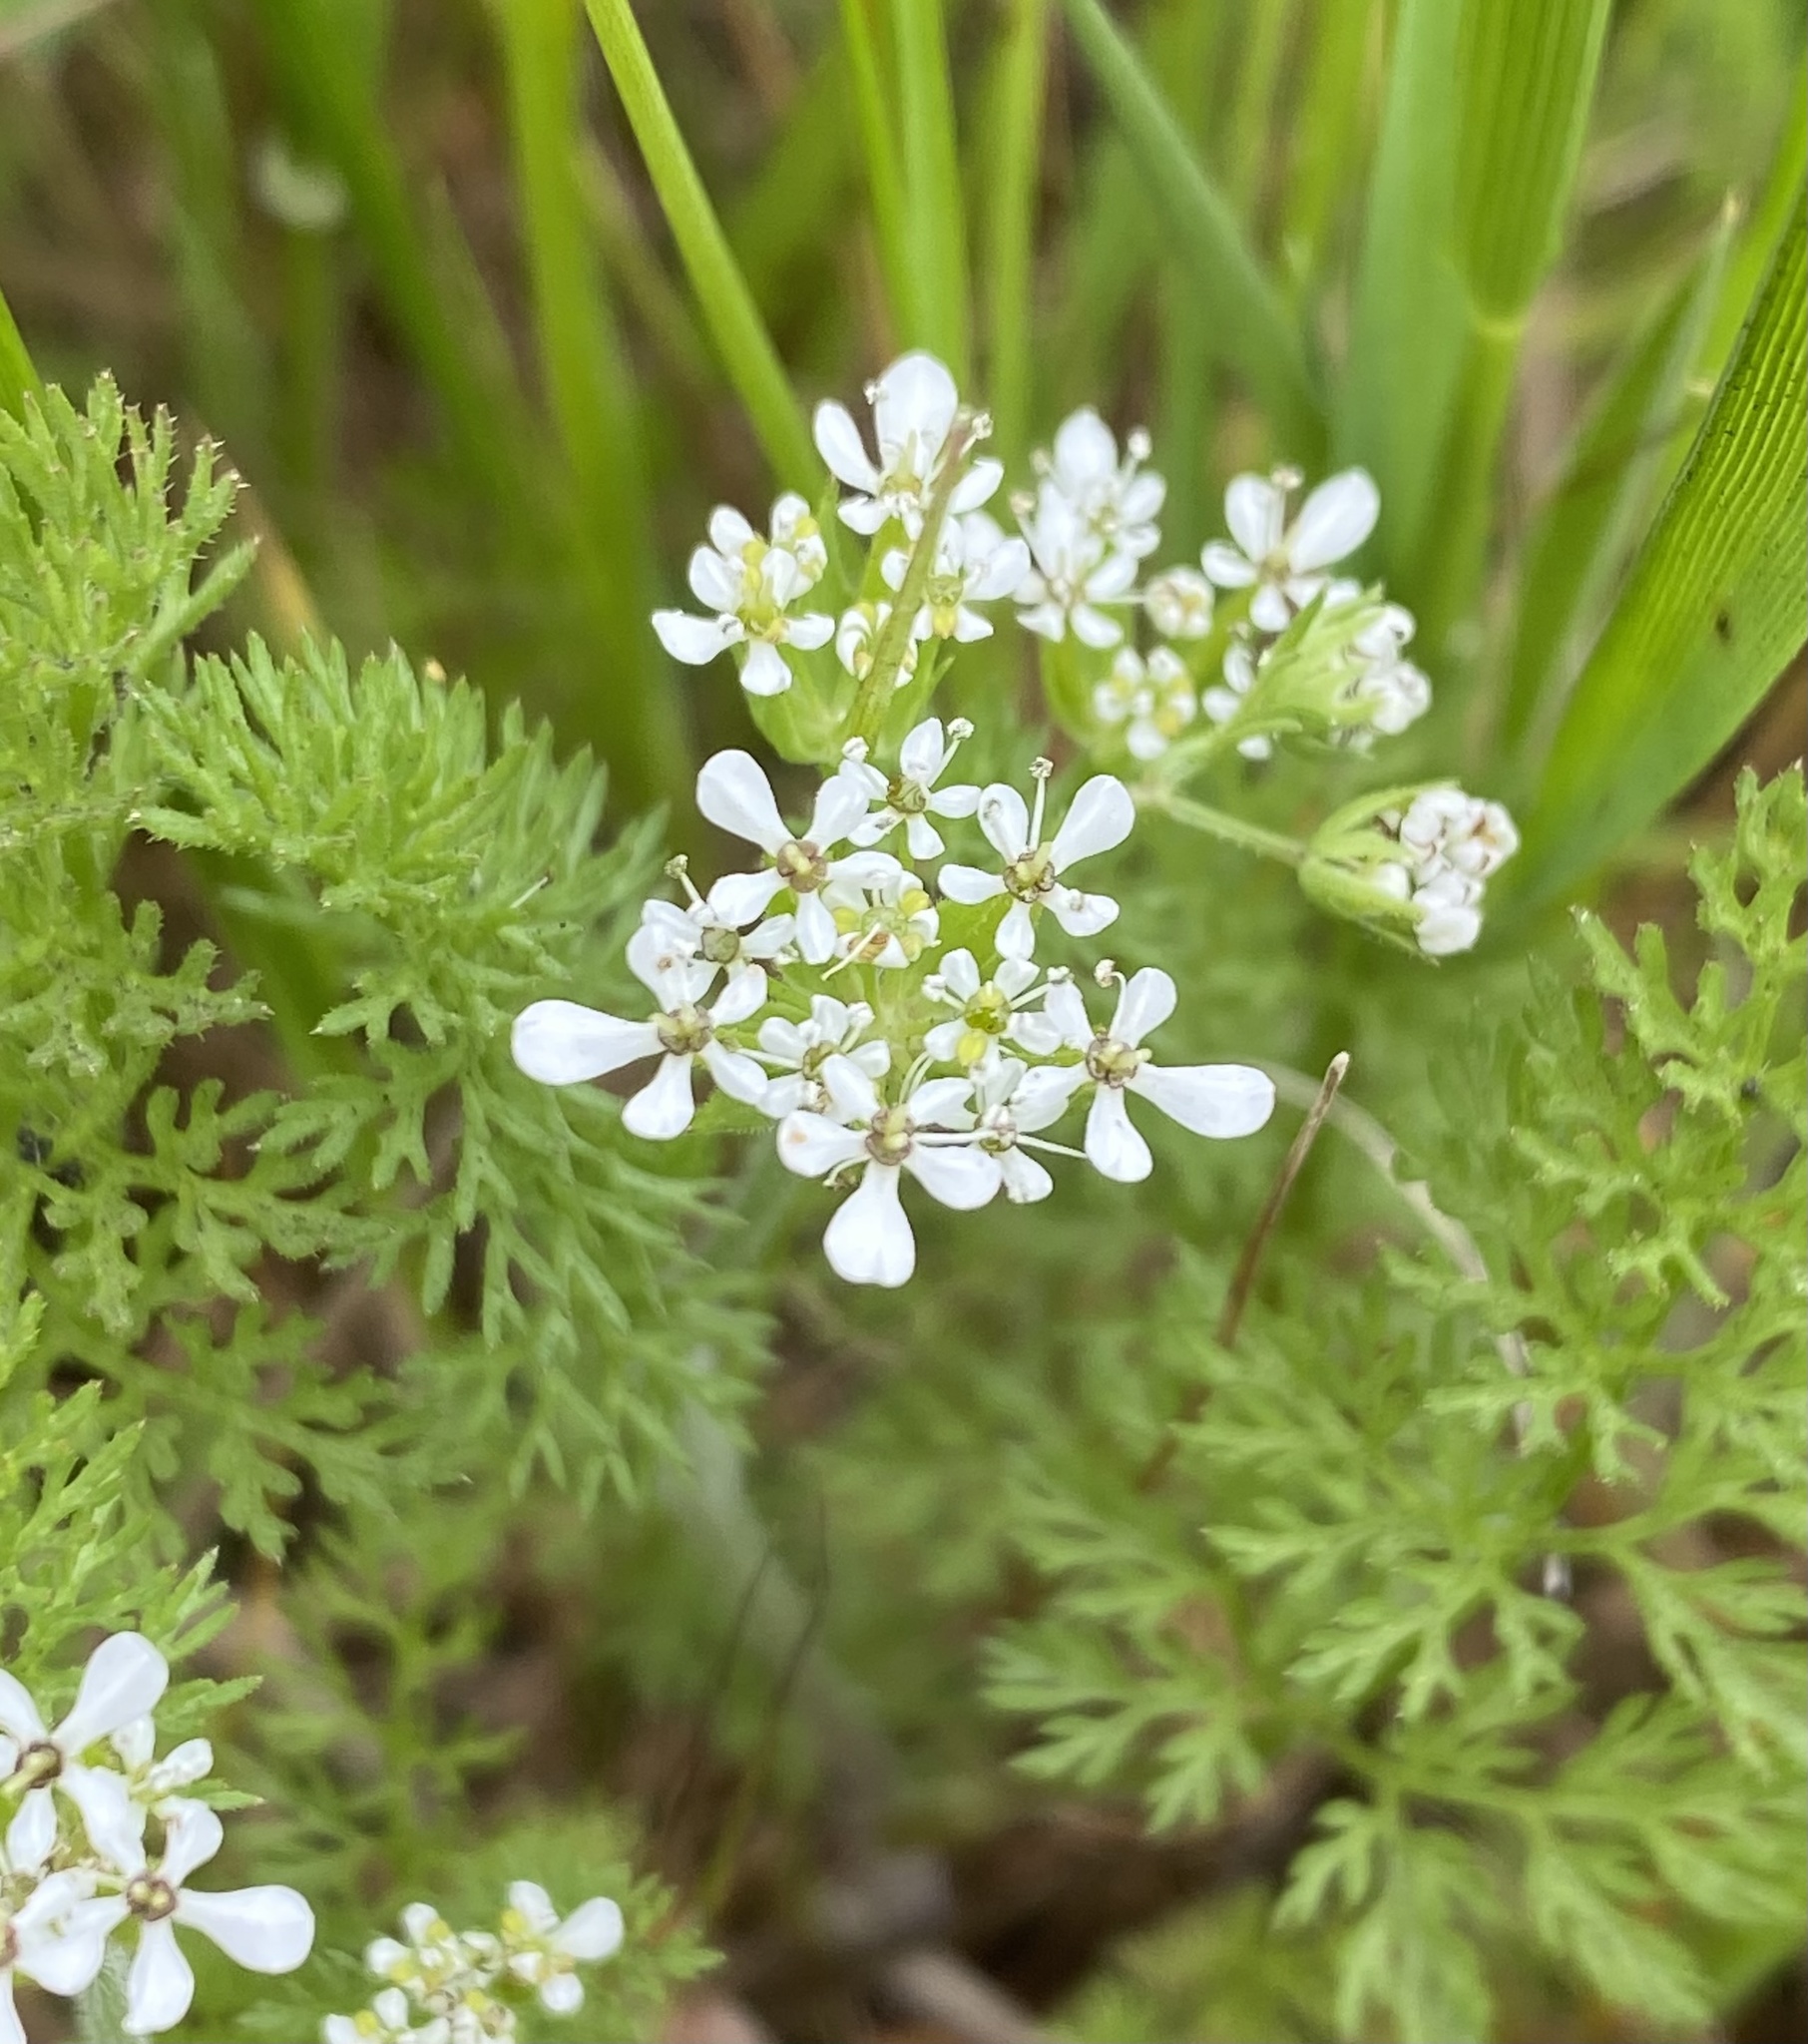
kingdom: Plantae
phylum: Tracheophyta
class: Magnoliopsida
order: Apiales
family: Apiaceae
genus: Scandix
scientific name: Scandix pecten-veneris
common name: Shepherd's-needle
